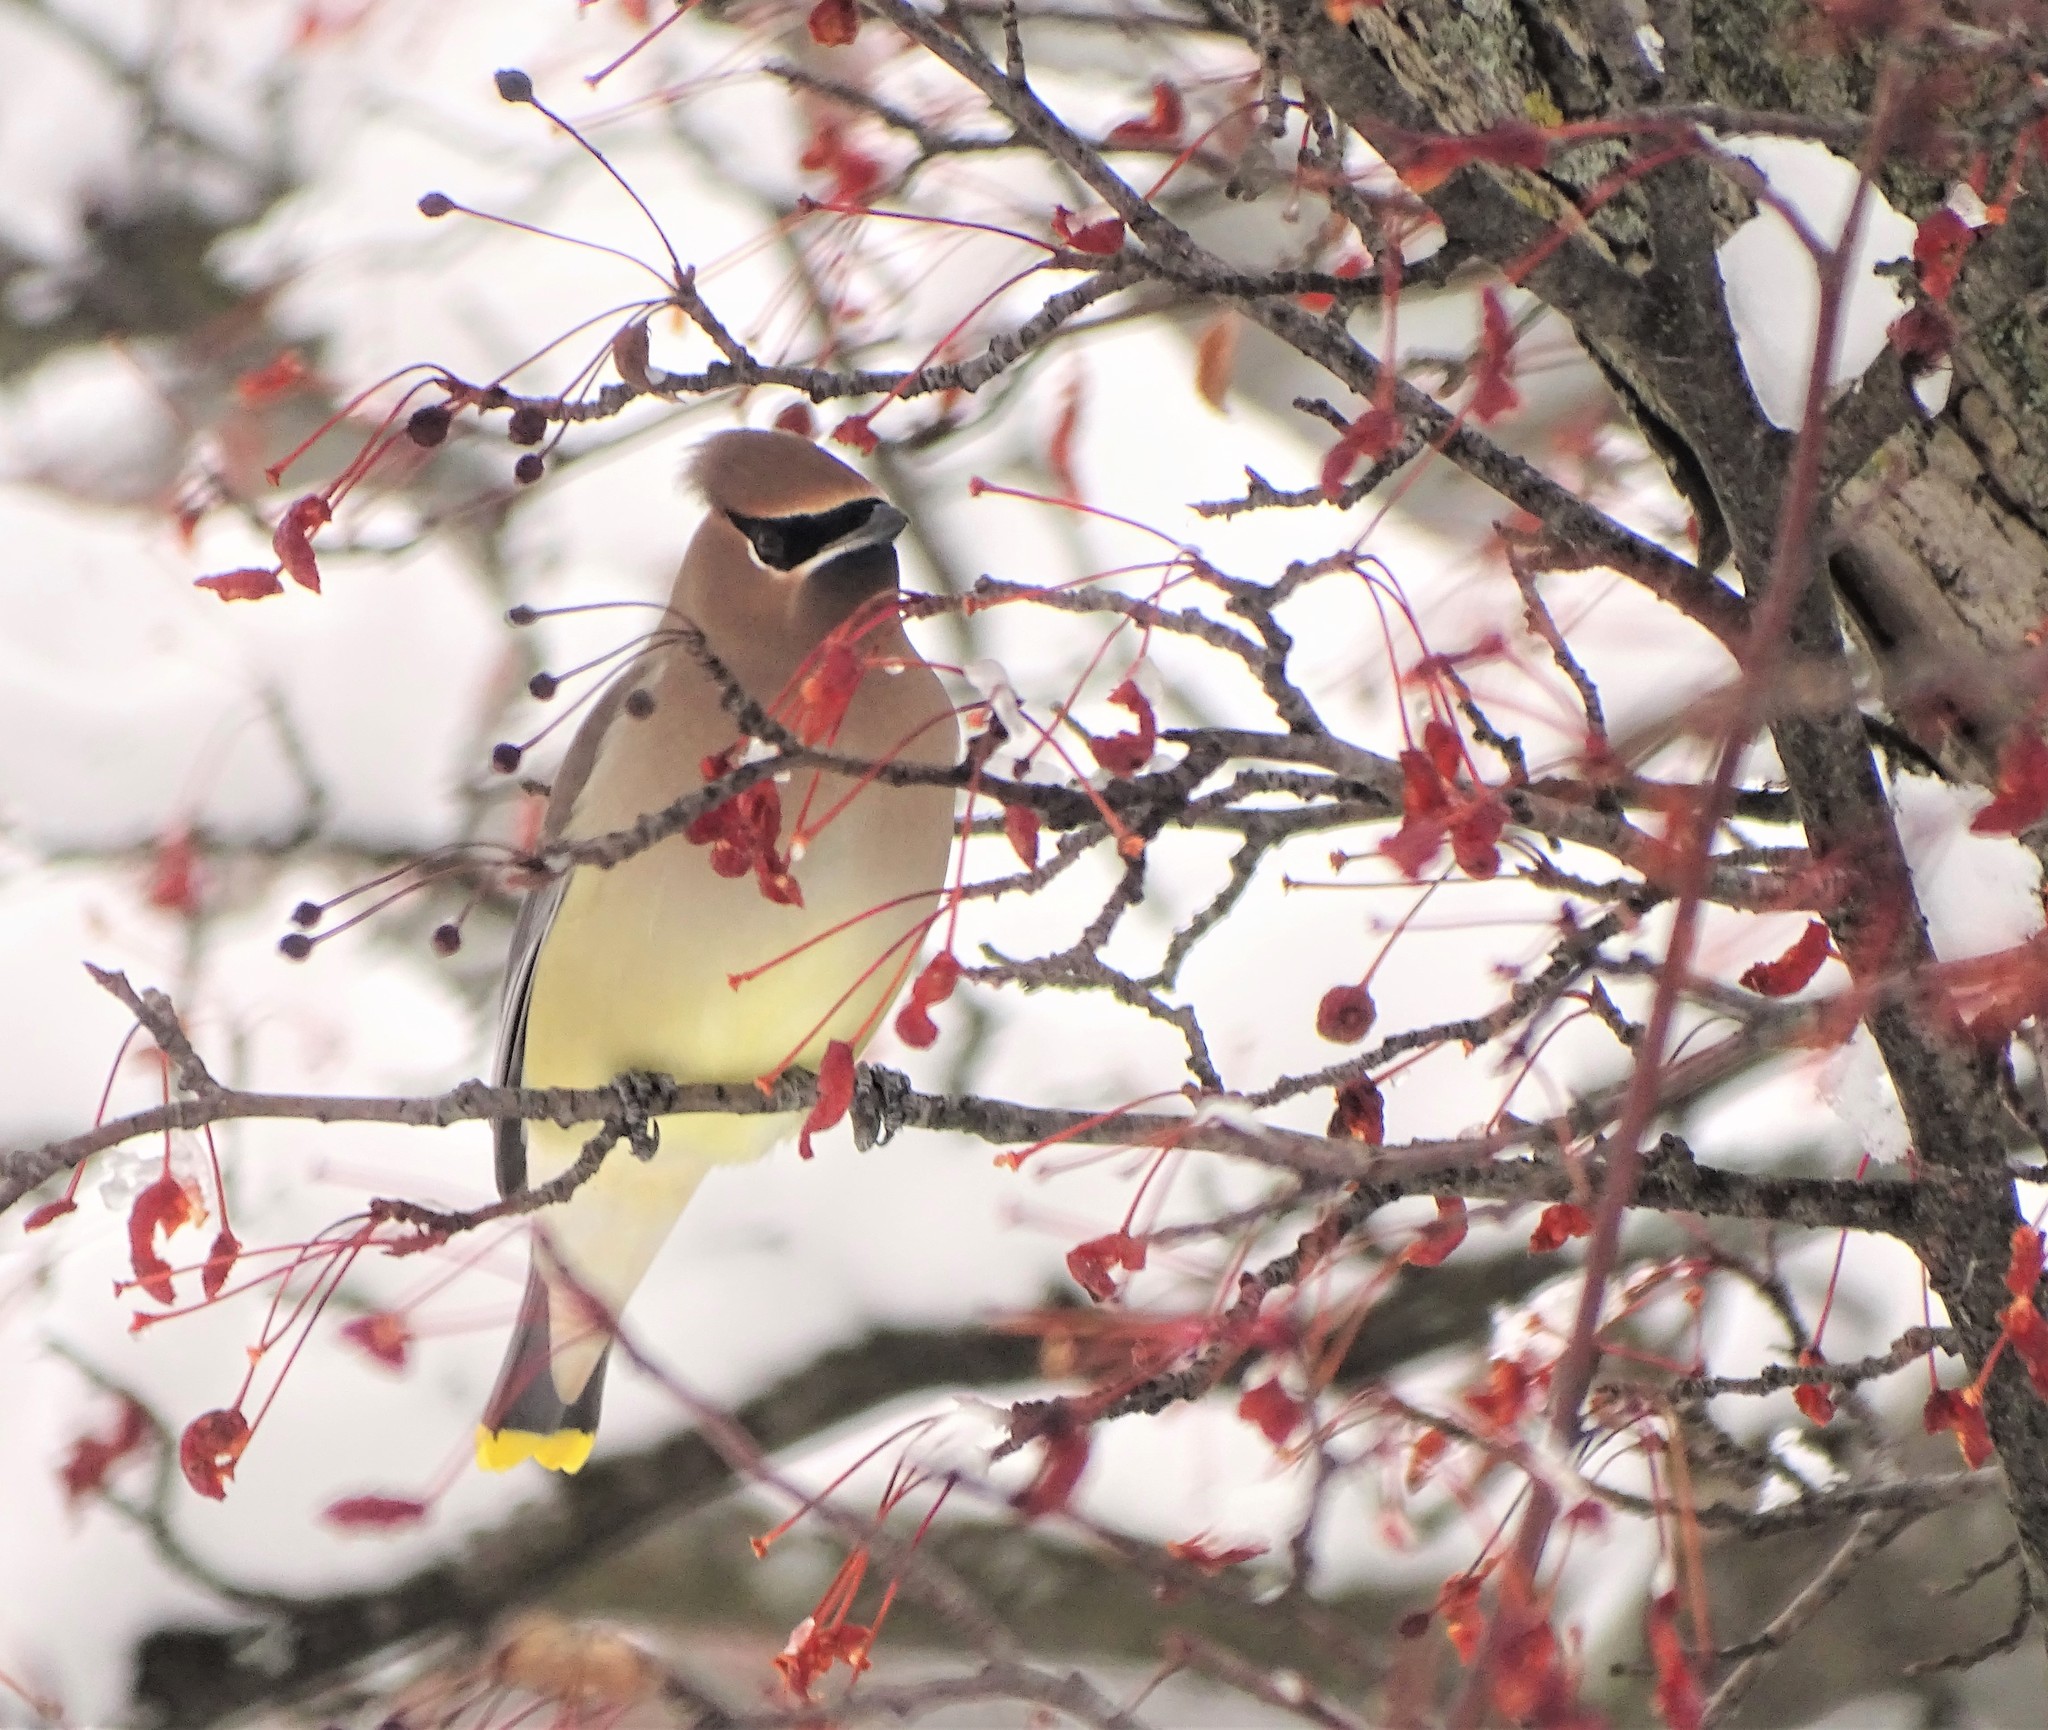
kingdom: Animalia
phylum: Chordata
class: Aves
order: Passeriformes
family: Bombycillidae
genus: Bombycilla
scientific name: Bombycilla cedrorum
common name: Cedar waxwing
